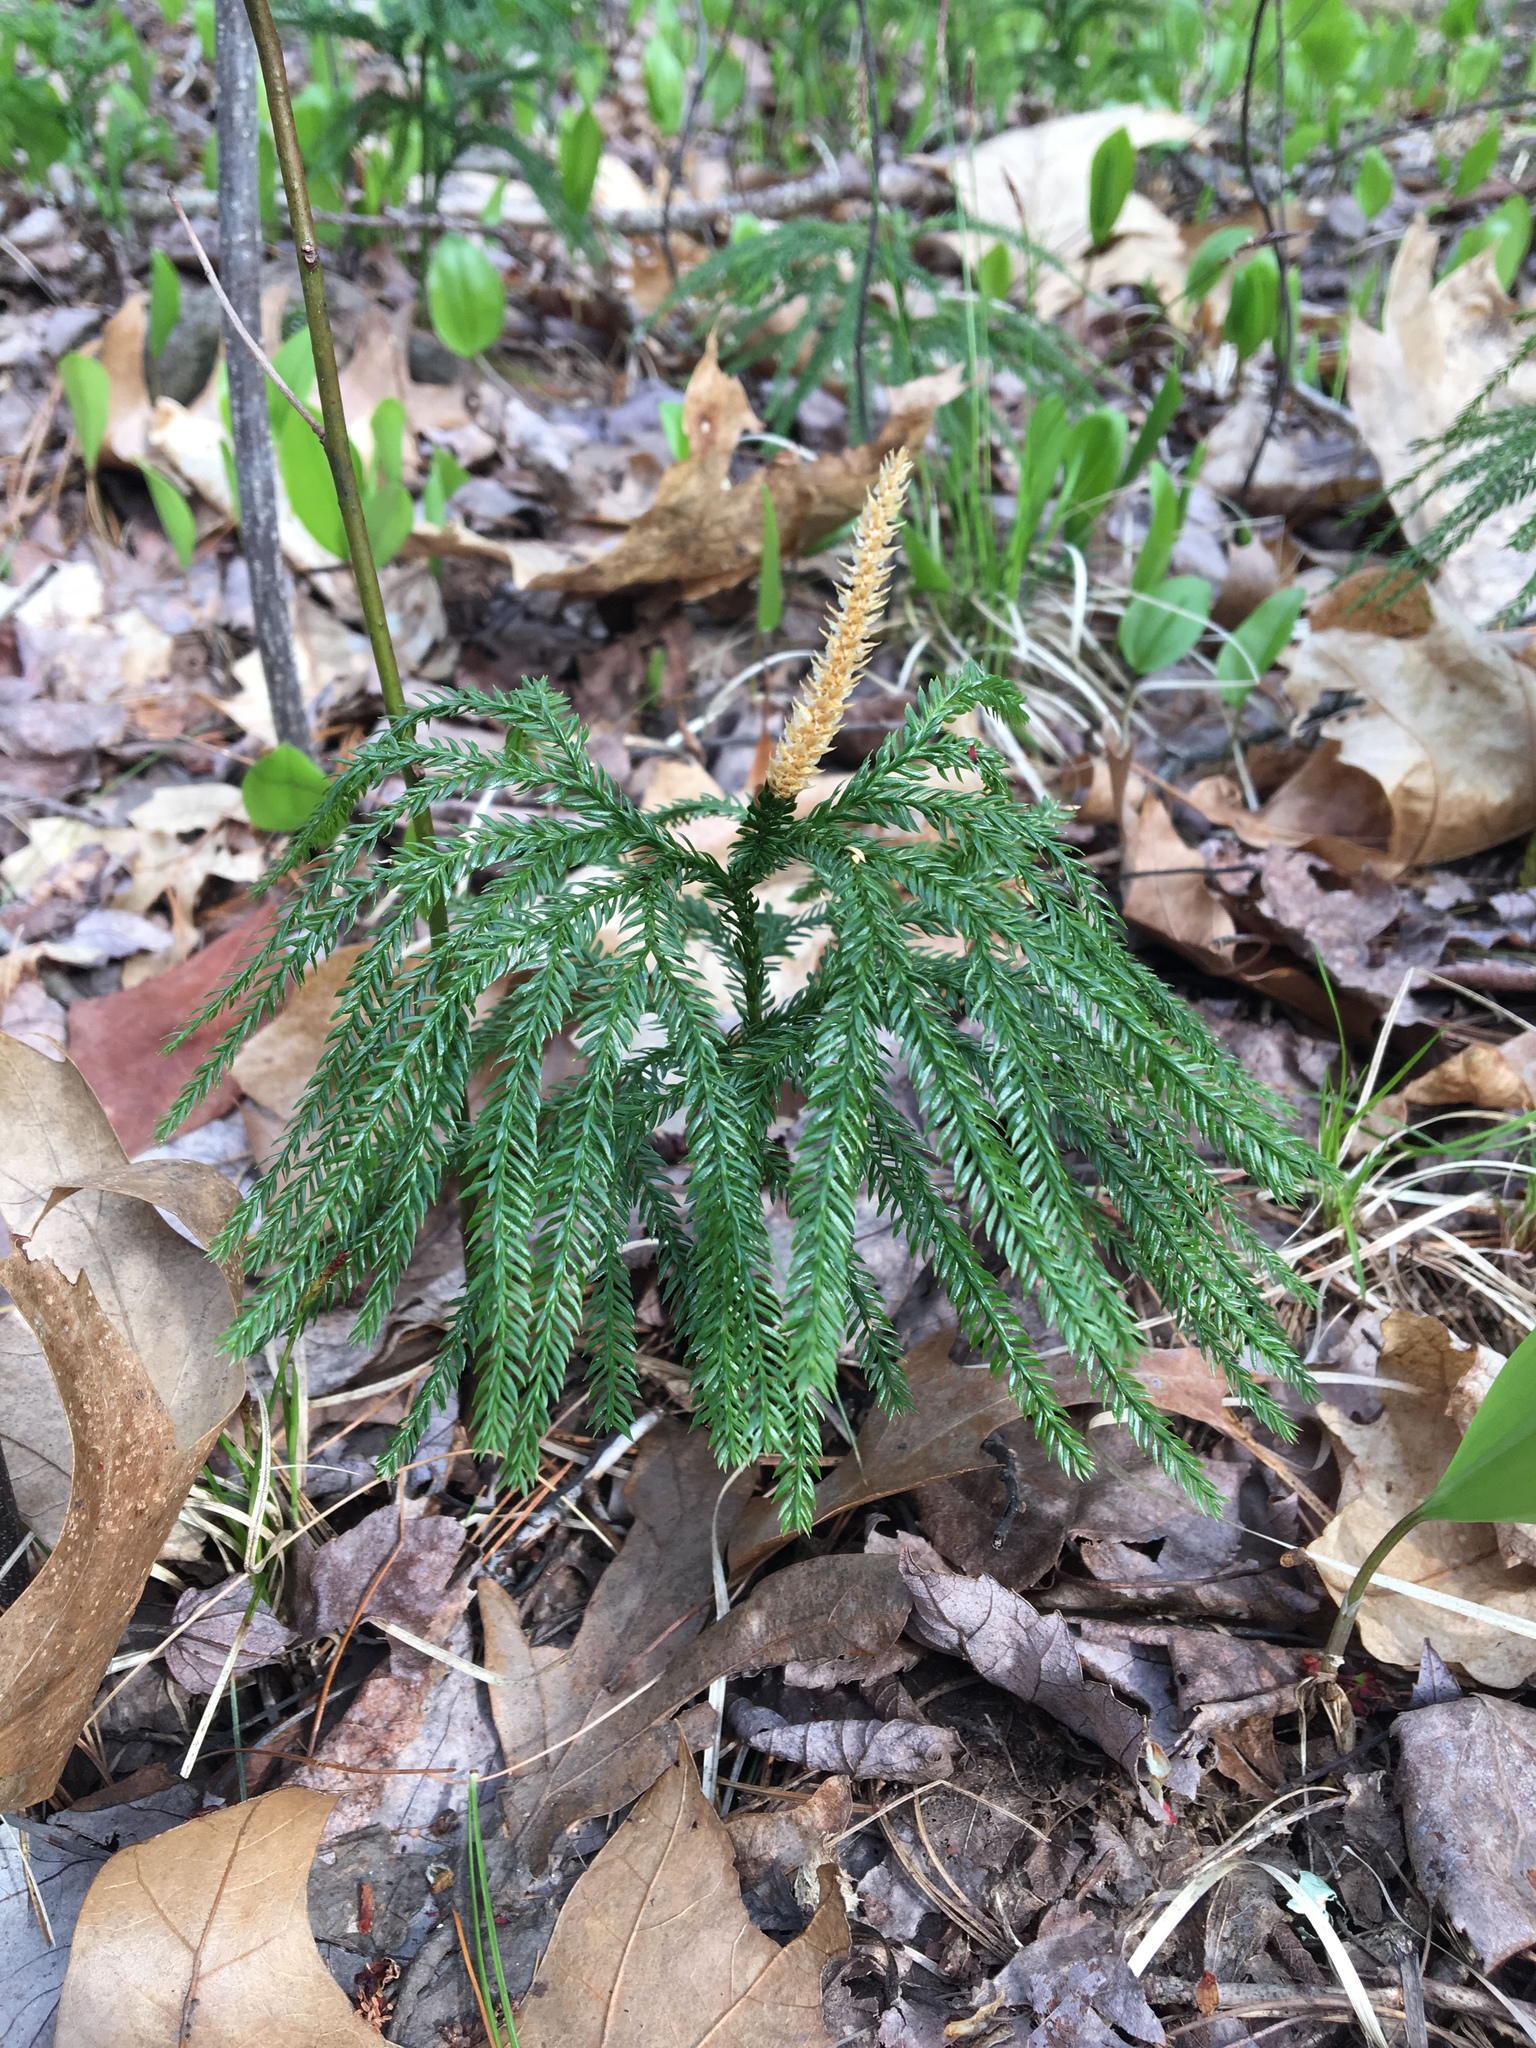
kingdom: Plantae
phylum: Tracheophyta
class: Lycopodiopsida
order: Lycopodiales
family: Lycopodiaceae
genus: Dendrolycopodium
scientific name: Dendrolycopodium obscurum
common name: Common ground-pine
